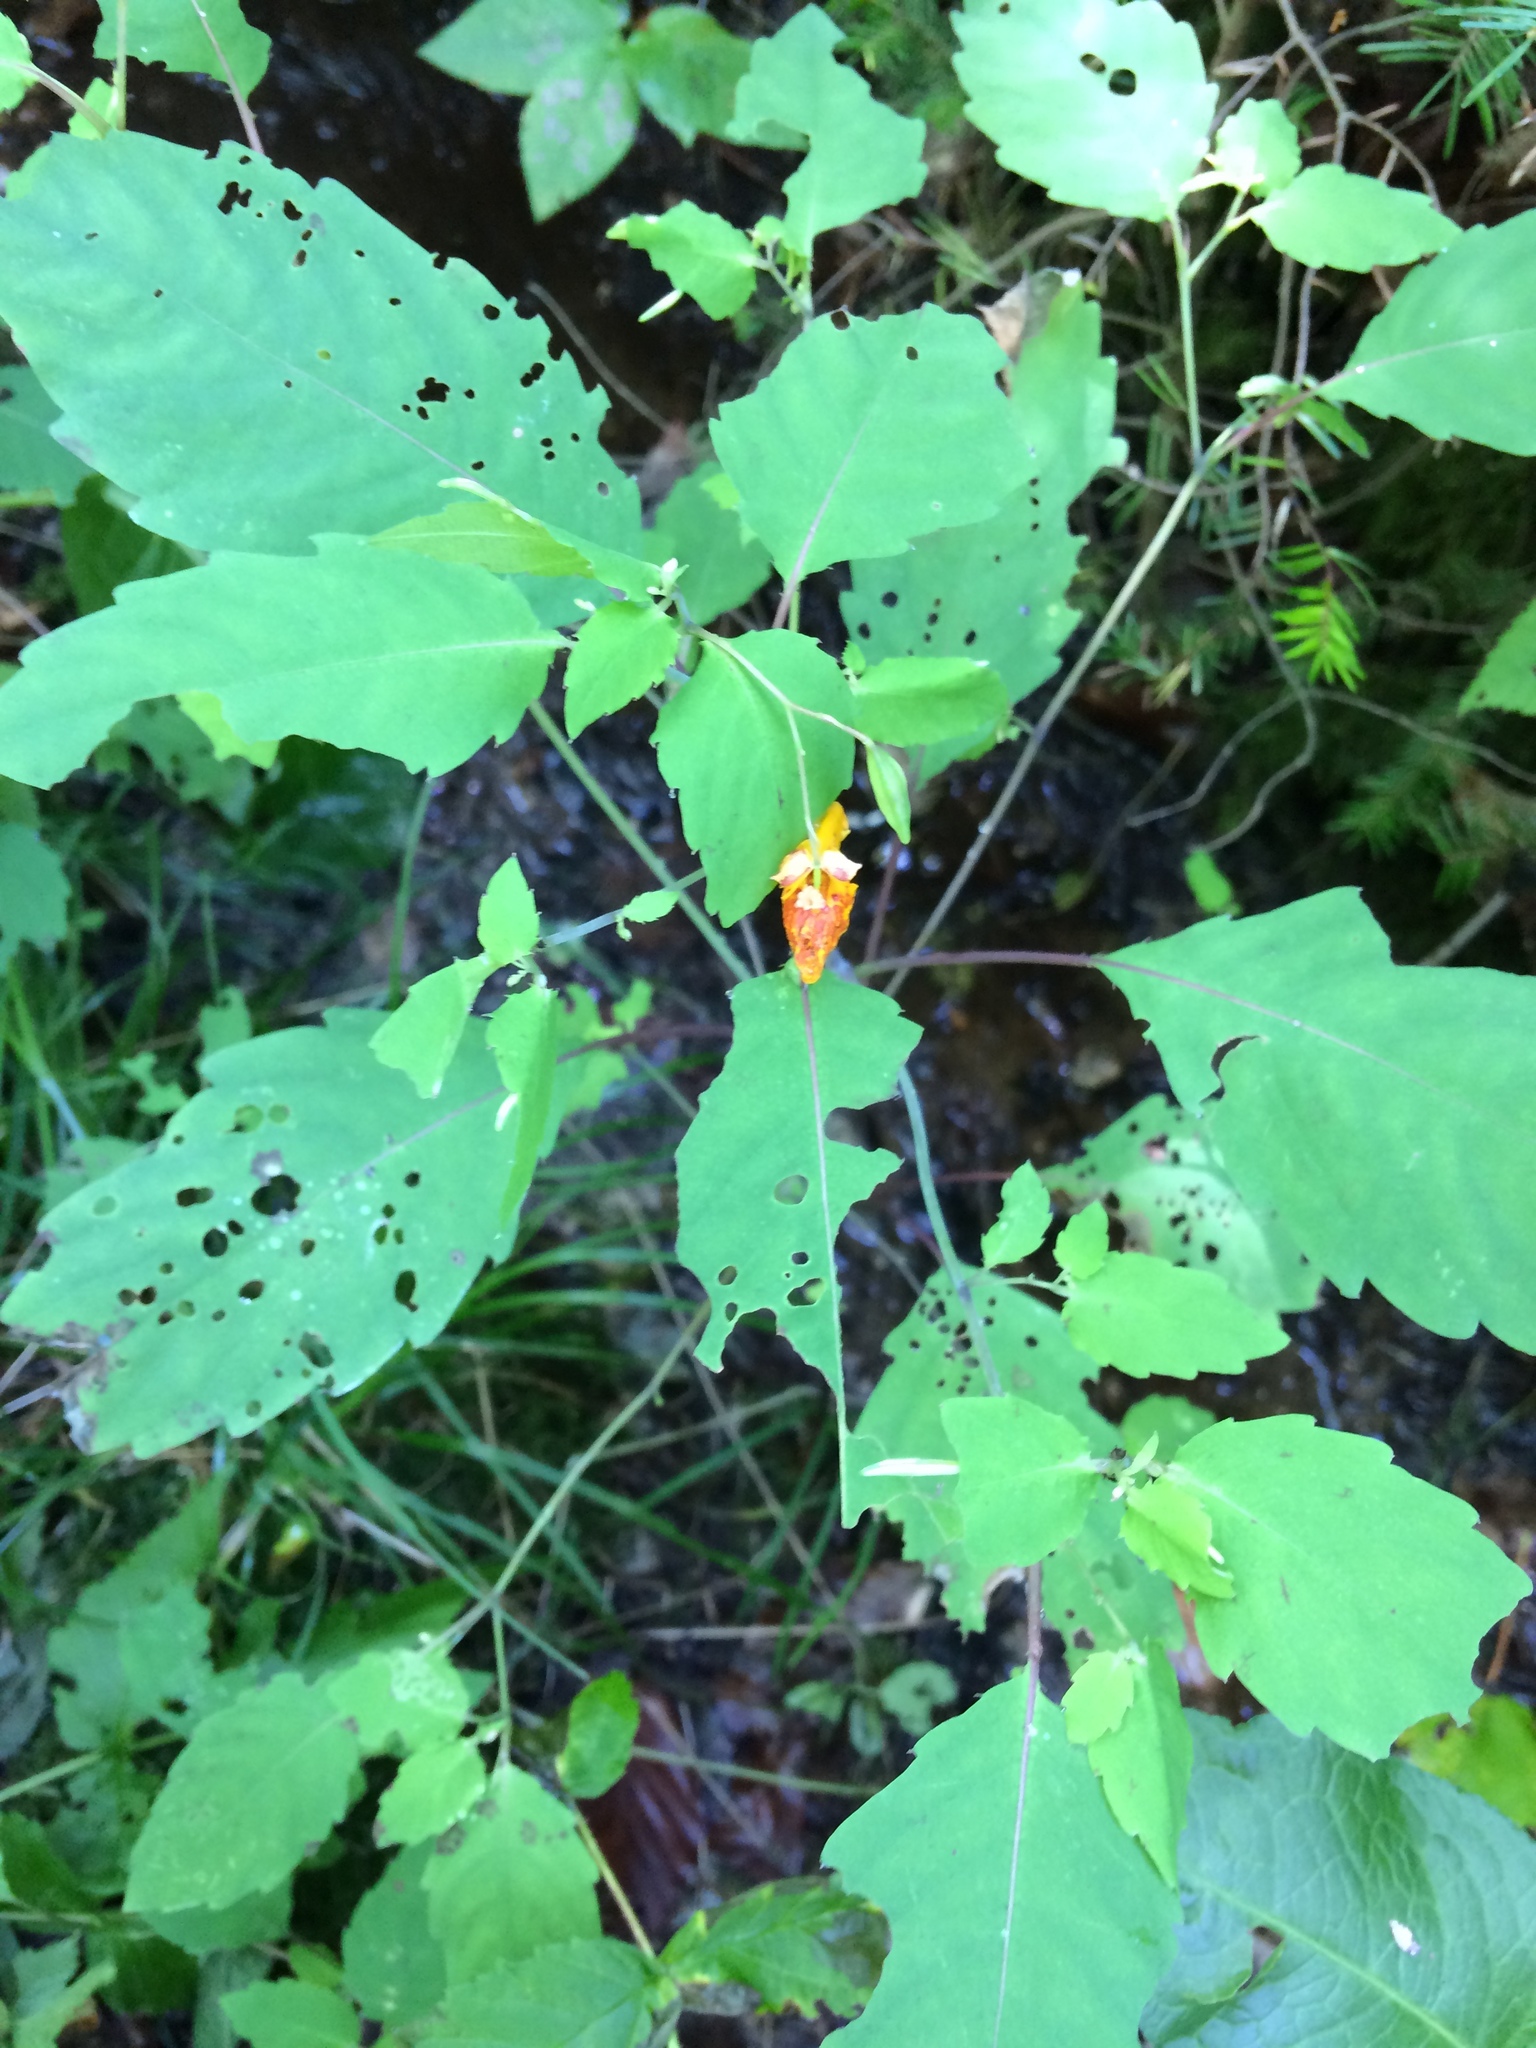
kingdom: Plantae
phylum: Tracheophyta
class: Magnoliopsida
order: Ericales
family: Balsaminaceae
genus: Impatiens
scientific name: Impatiens capensis
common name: Orange balsam
